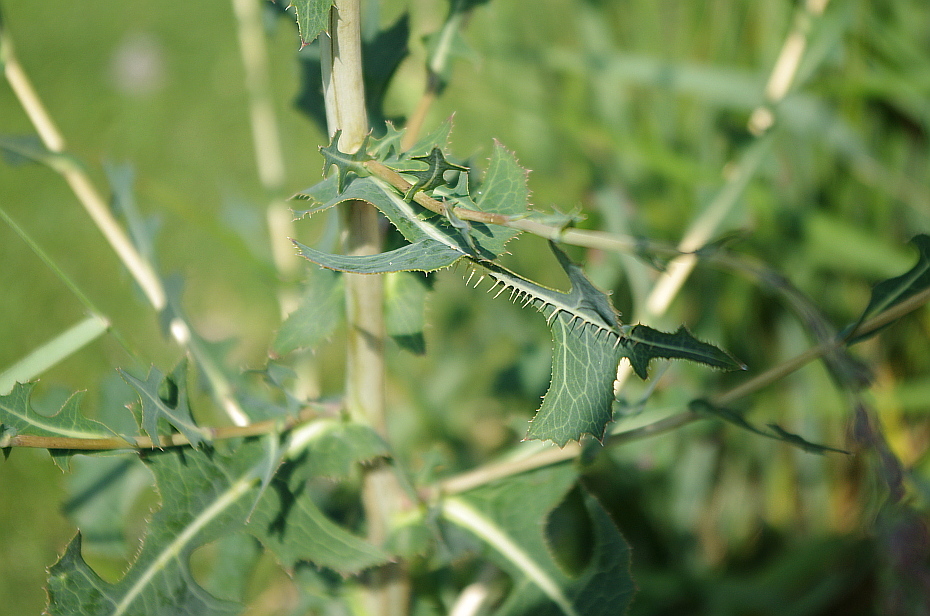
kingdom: Plantae
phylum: Tracheophyta
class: Magnoliopsida
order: Asterales
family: Asteraceae
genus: Lactuca
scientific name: Lactuca serriola
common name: Prickly lettuce
